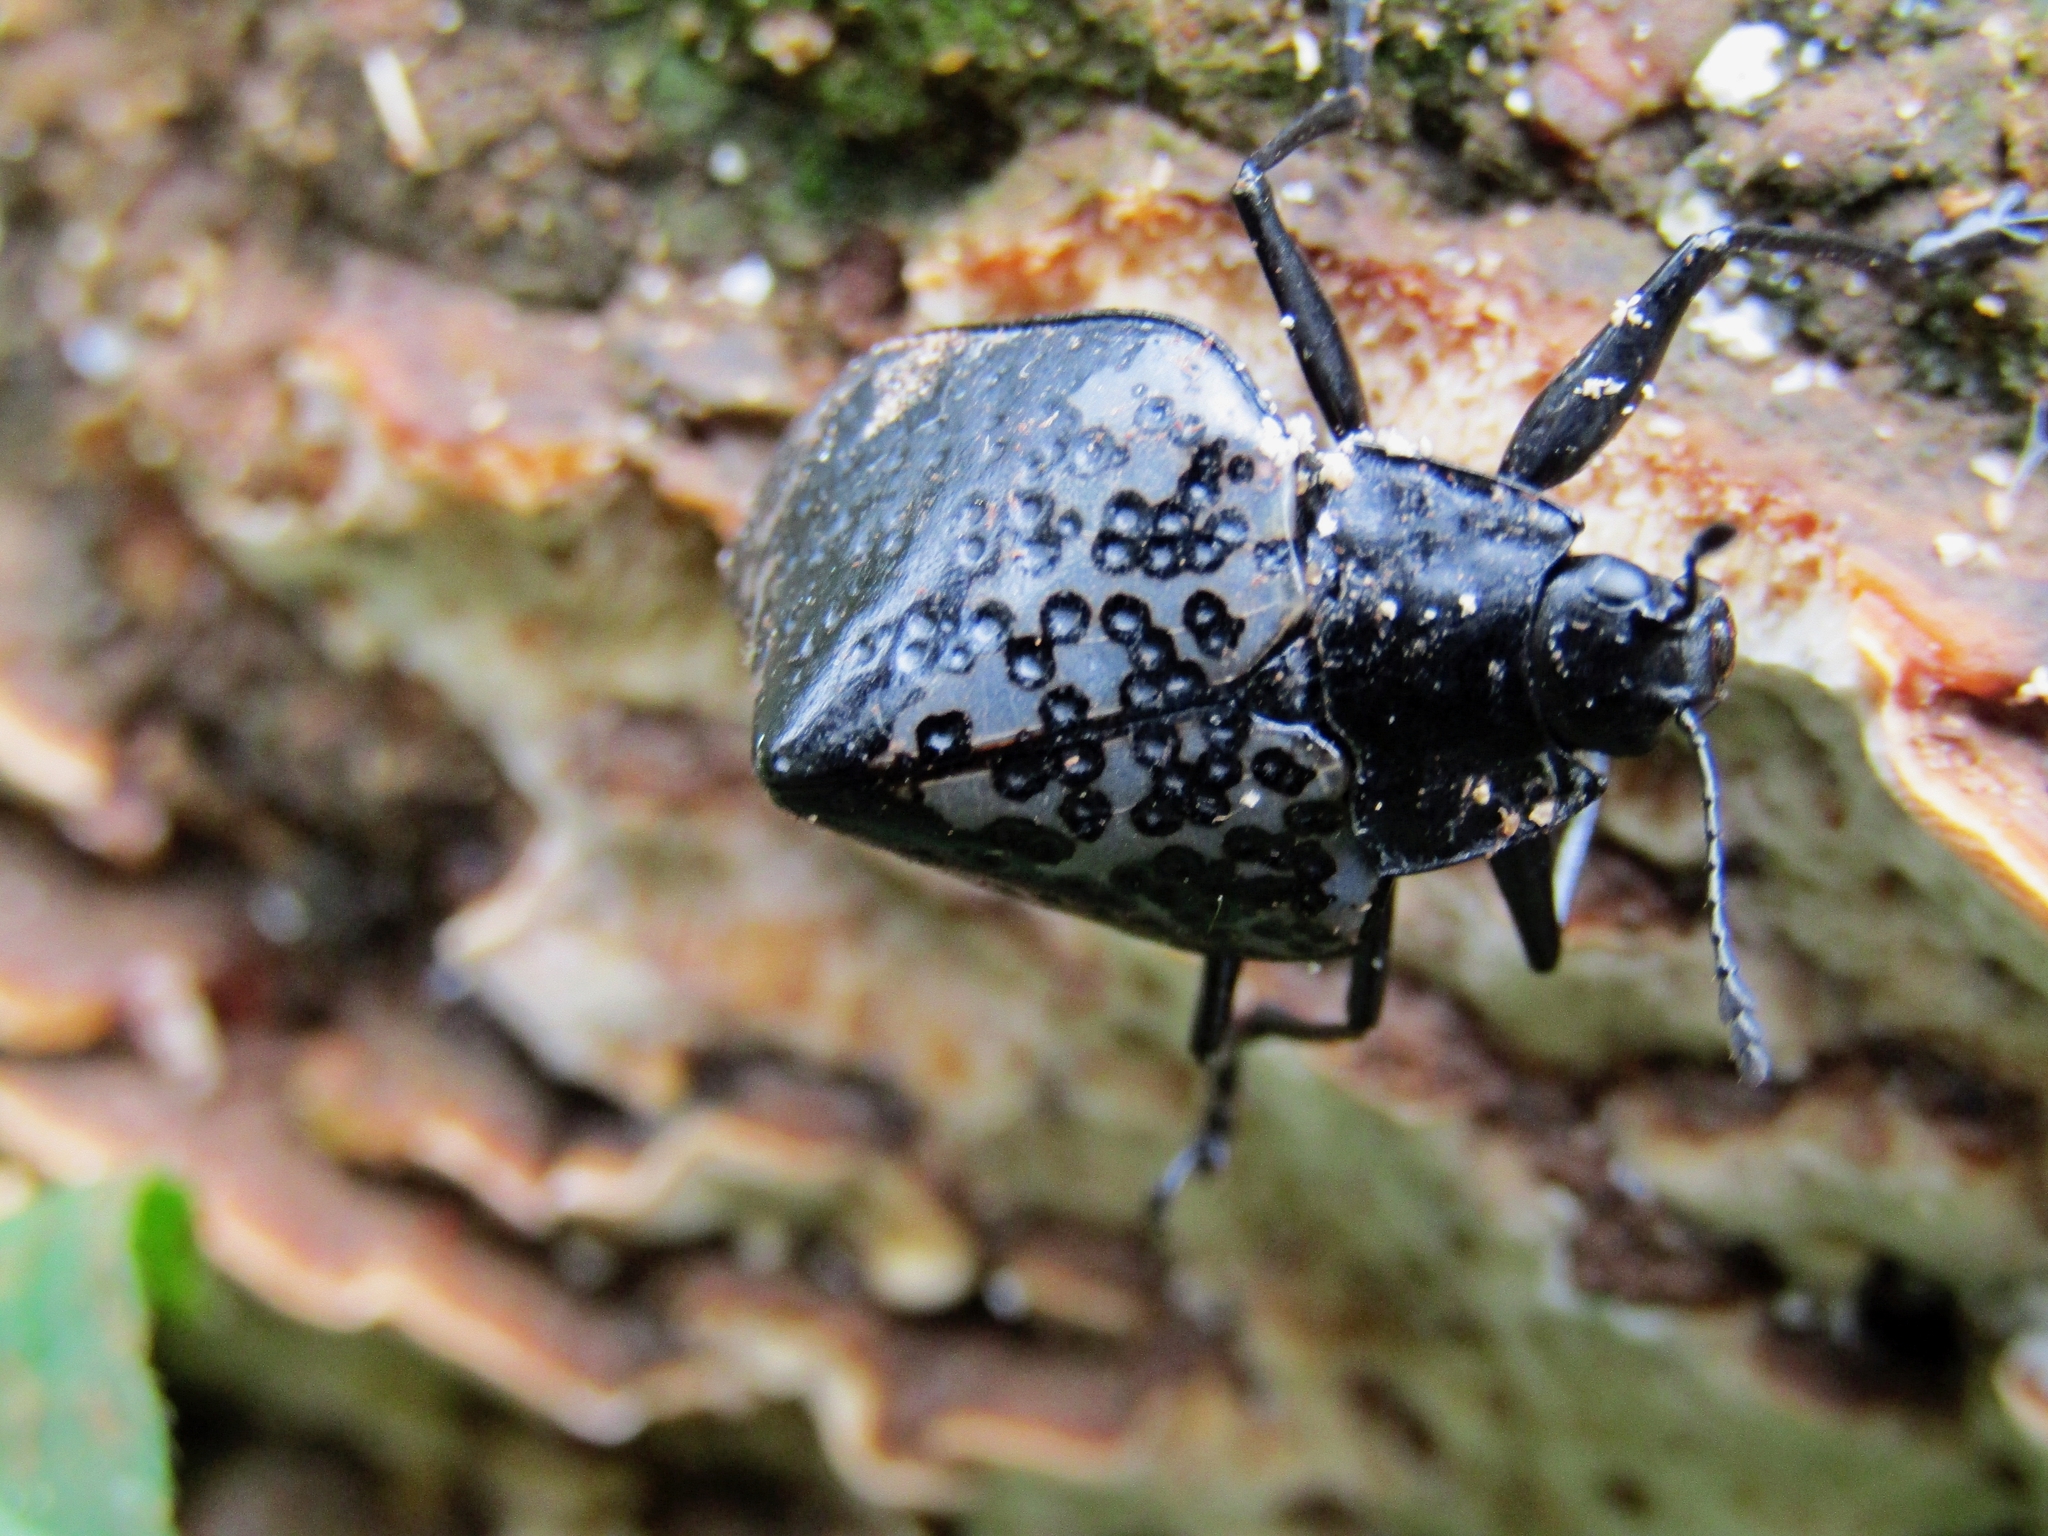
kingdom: Animalia
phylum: Arthropoda
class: Insecta
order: Coleoptera
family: Erotylidae
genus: Gibbifer
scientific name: Gibbifer
